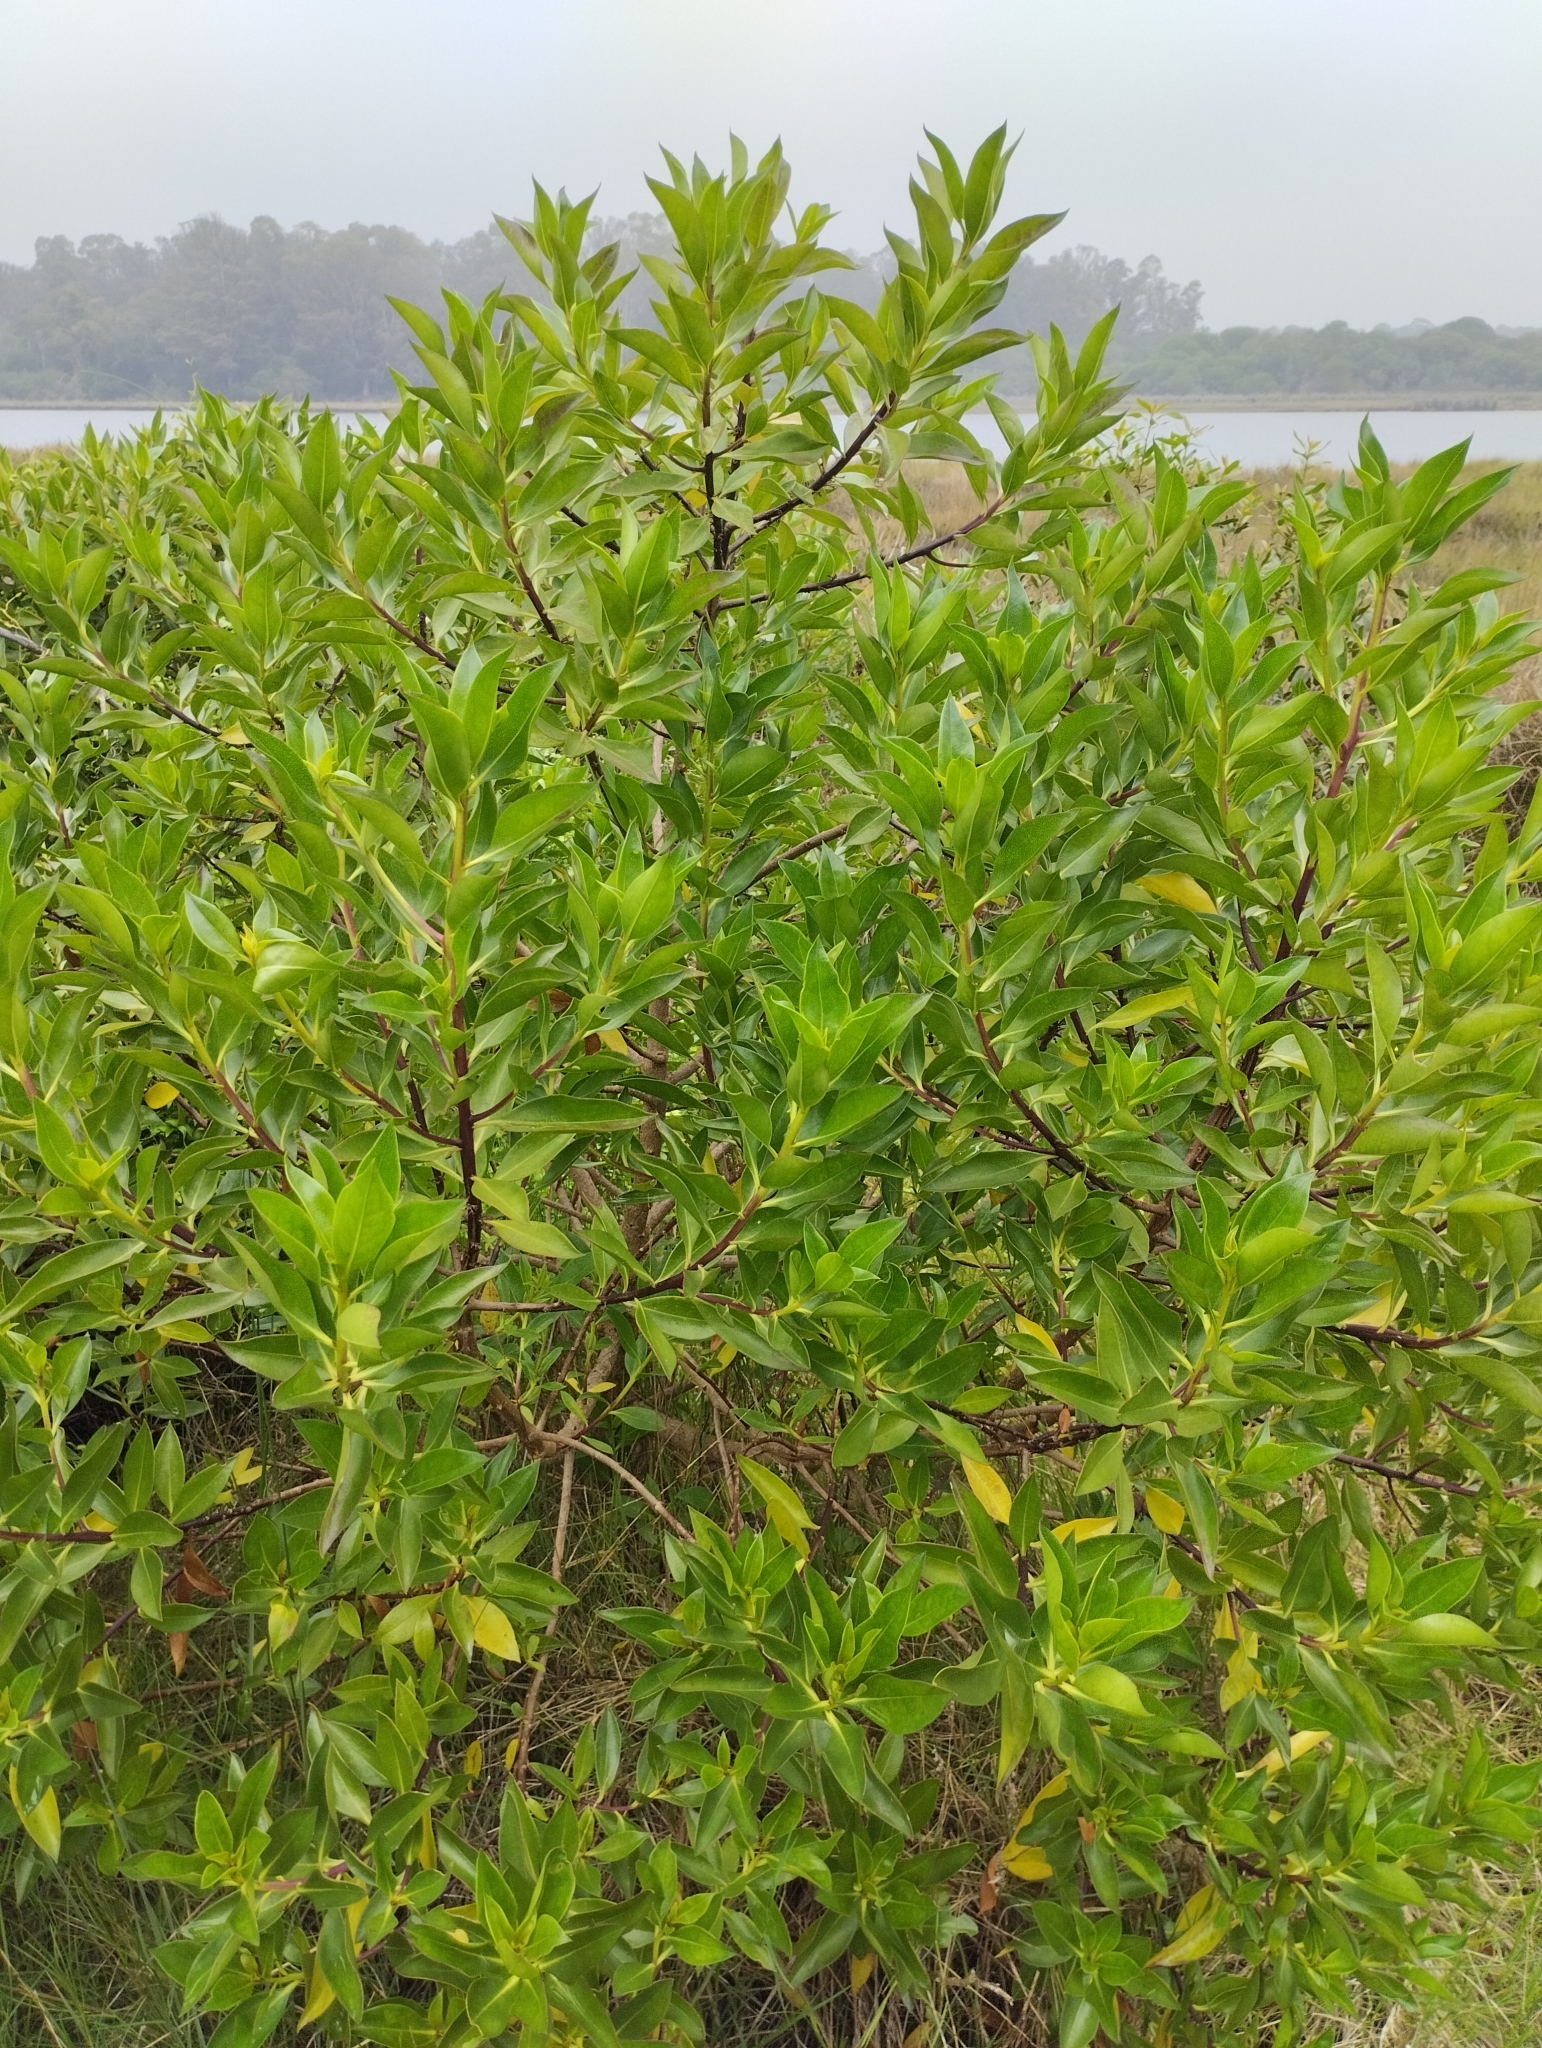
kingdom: Plantae
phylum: Tracheophyta
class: Magnoliopsida
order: Lamiales
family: Scrophulariaceae
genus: Myoporum
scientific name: Myoporum laetum
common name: Ngaio tree
